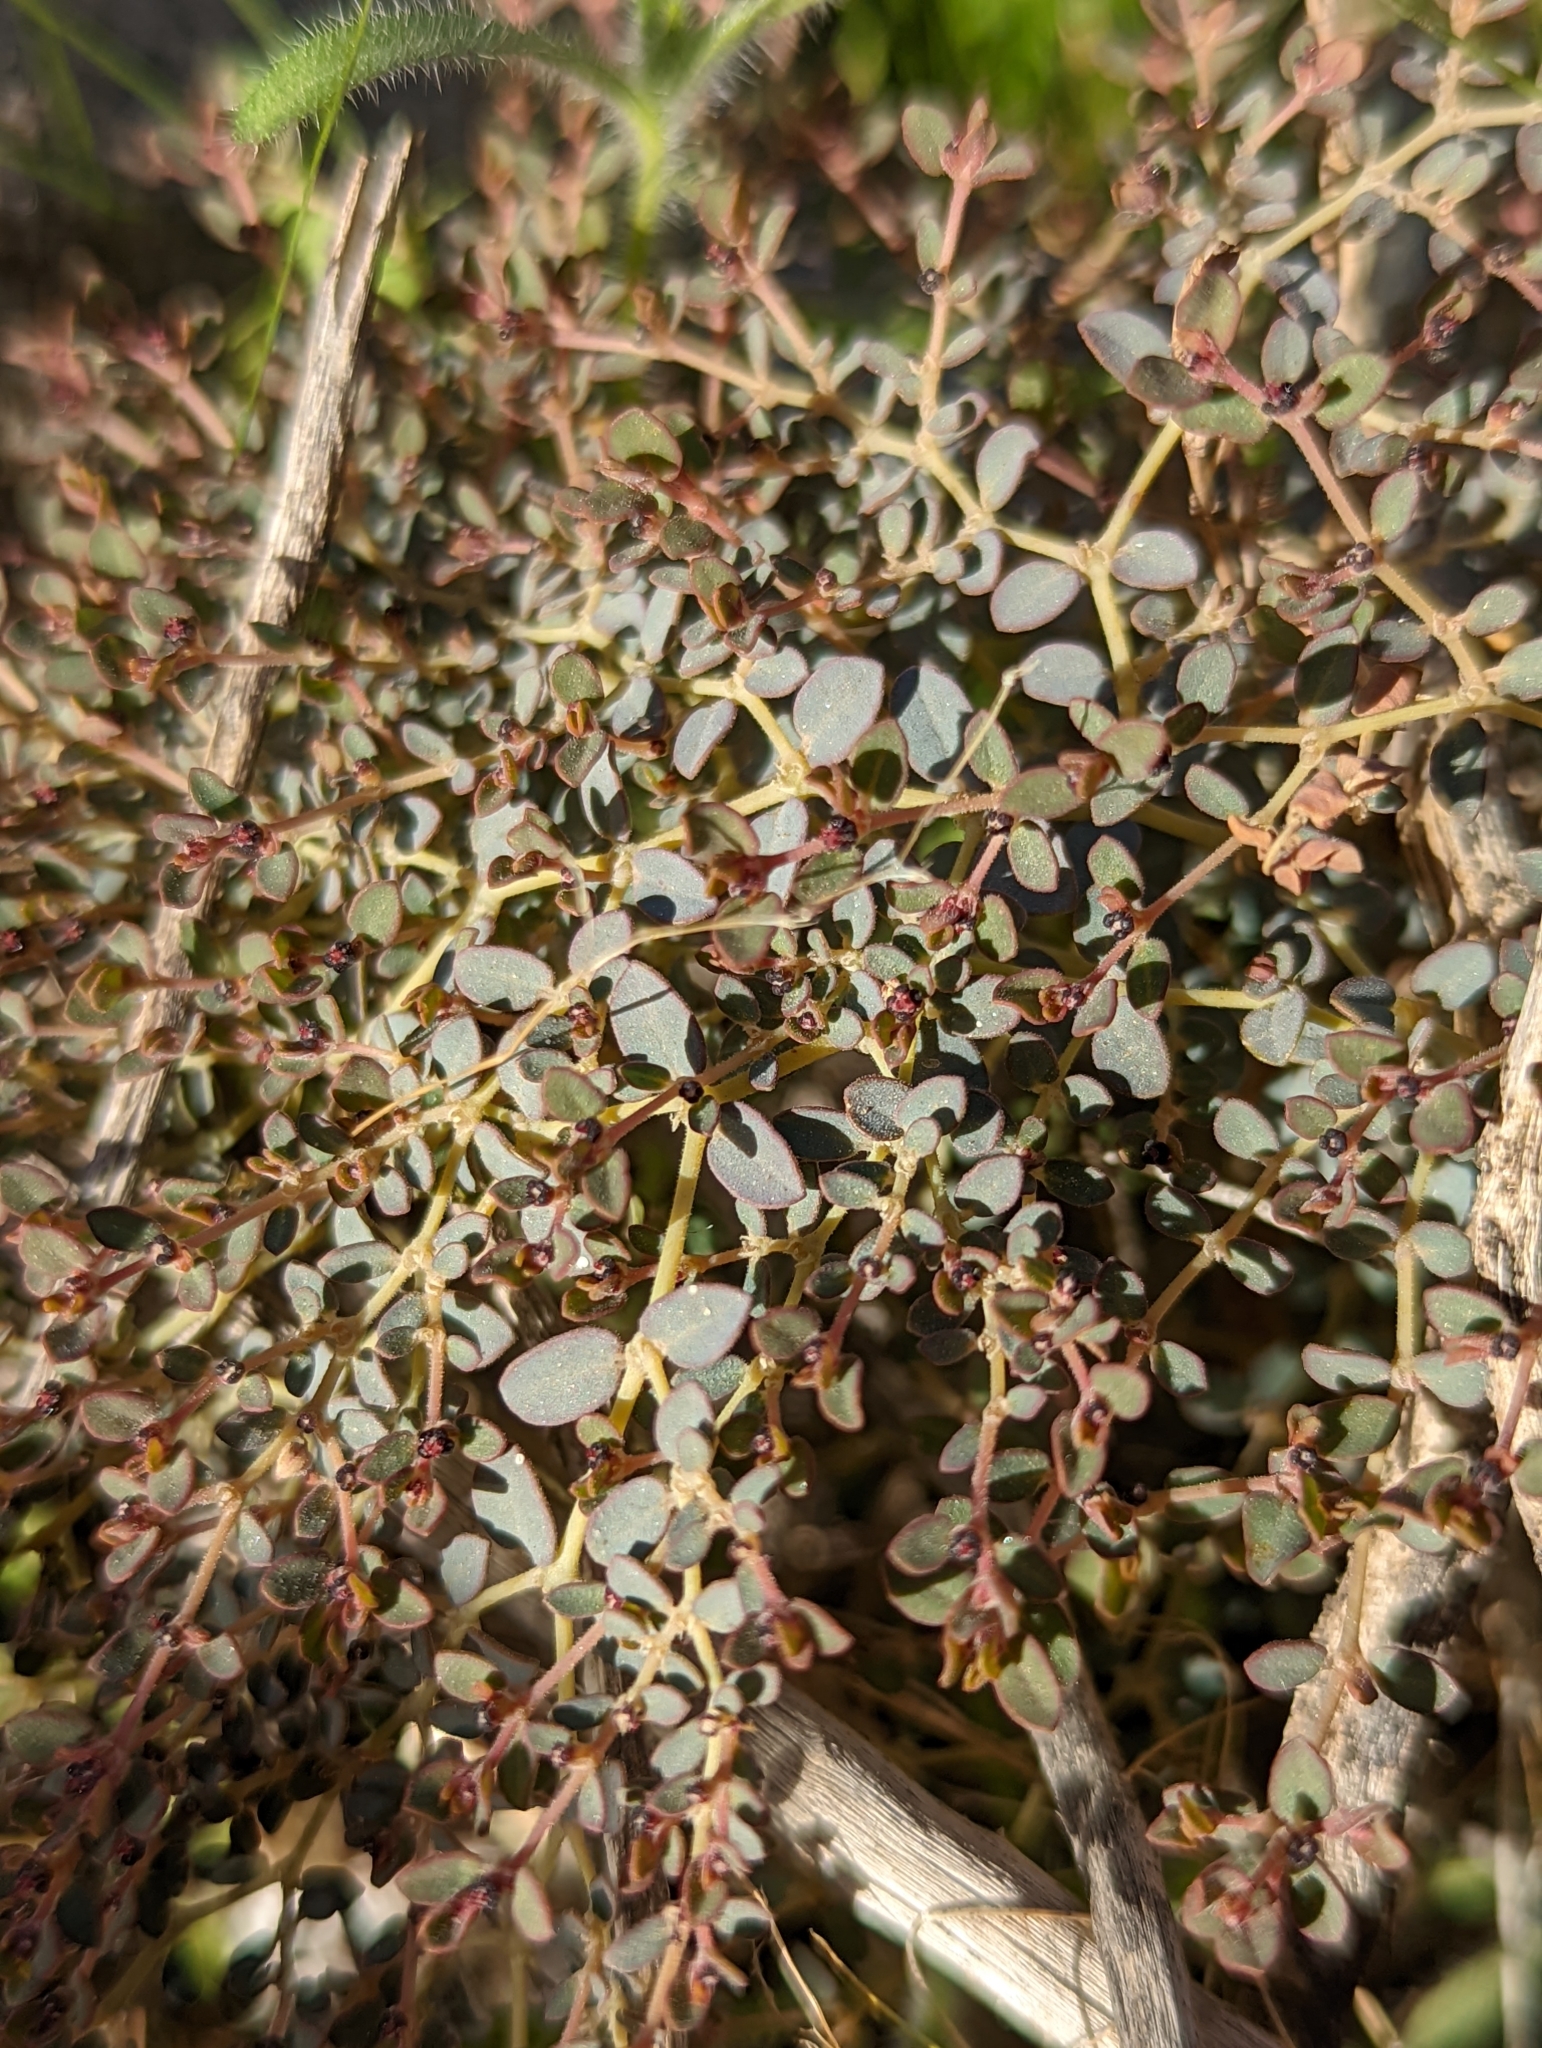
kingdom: Plantae
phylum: Tracheophyta
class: Magnoliopsida
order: Malpighiales
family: Euphorbiaceae
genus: Euphorbia
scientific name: Euphorbia polycarpa
